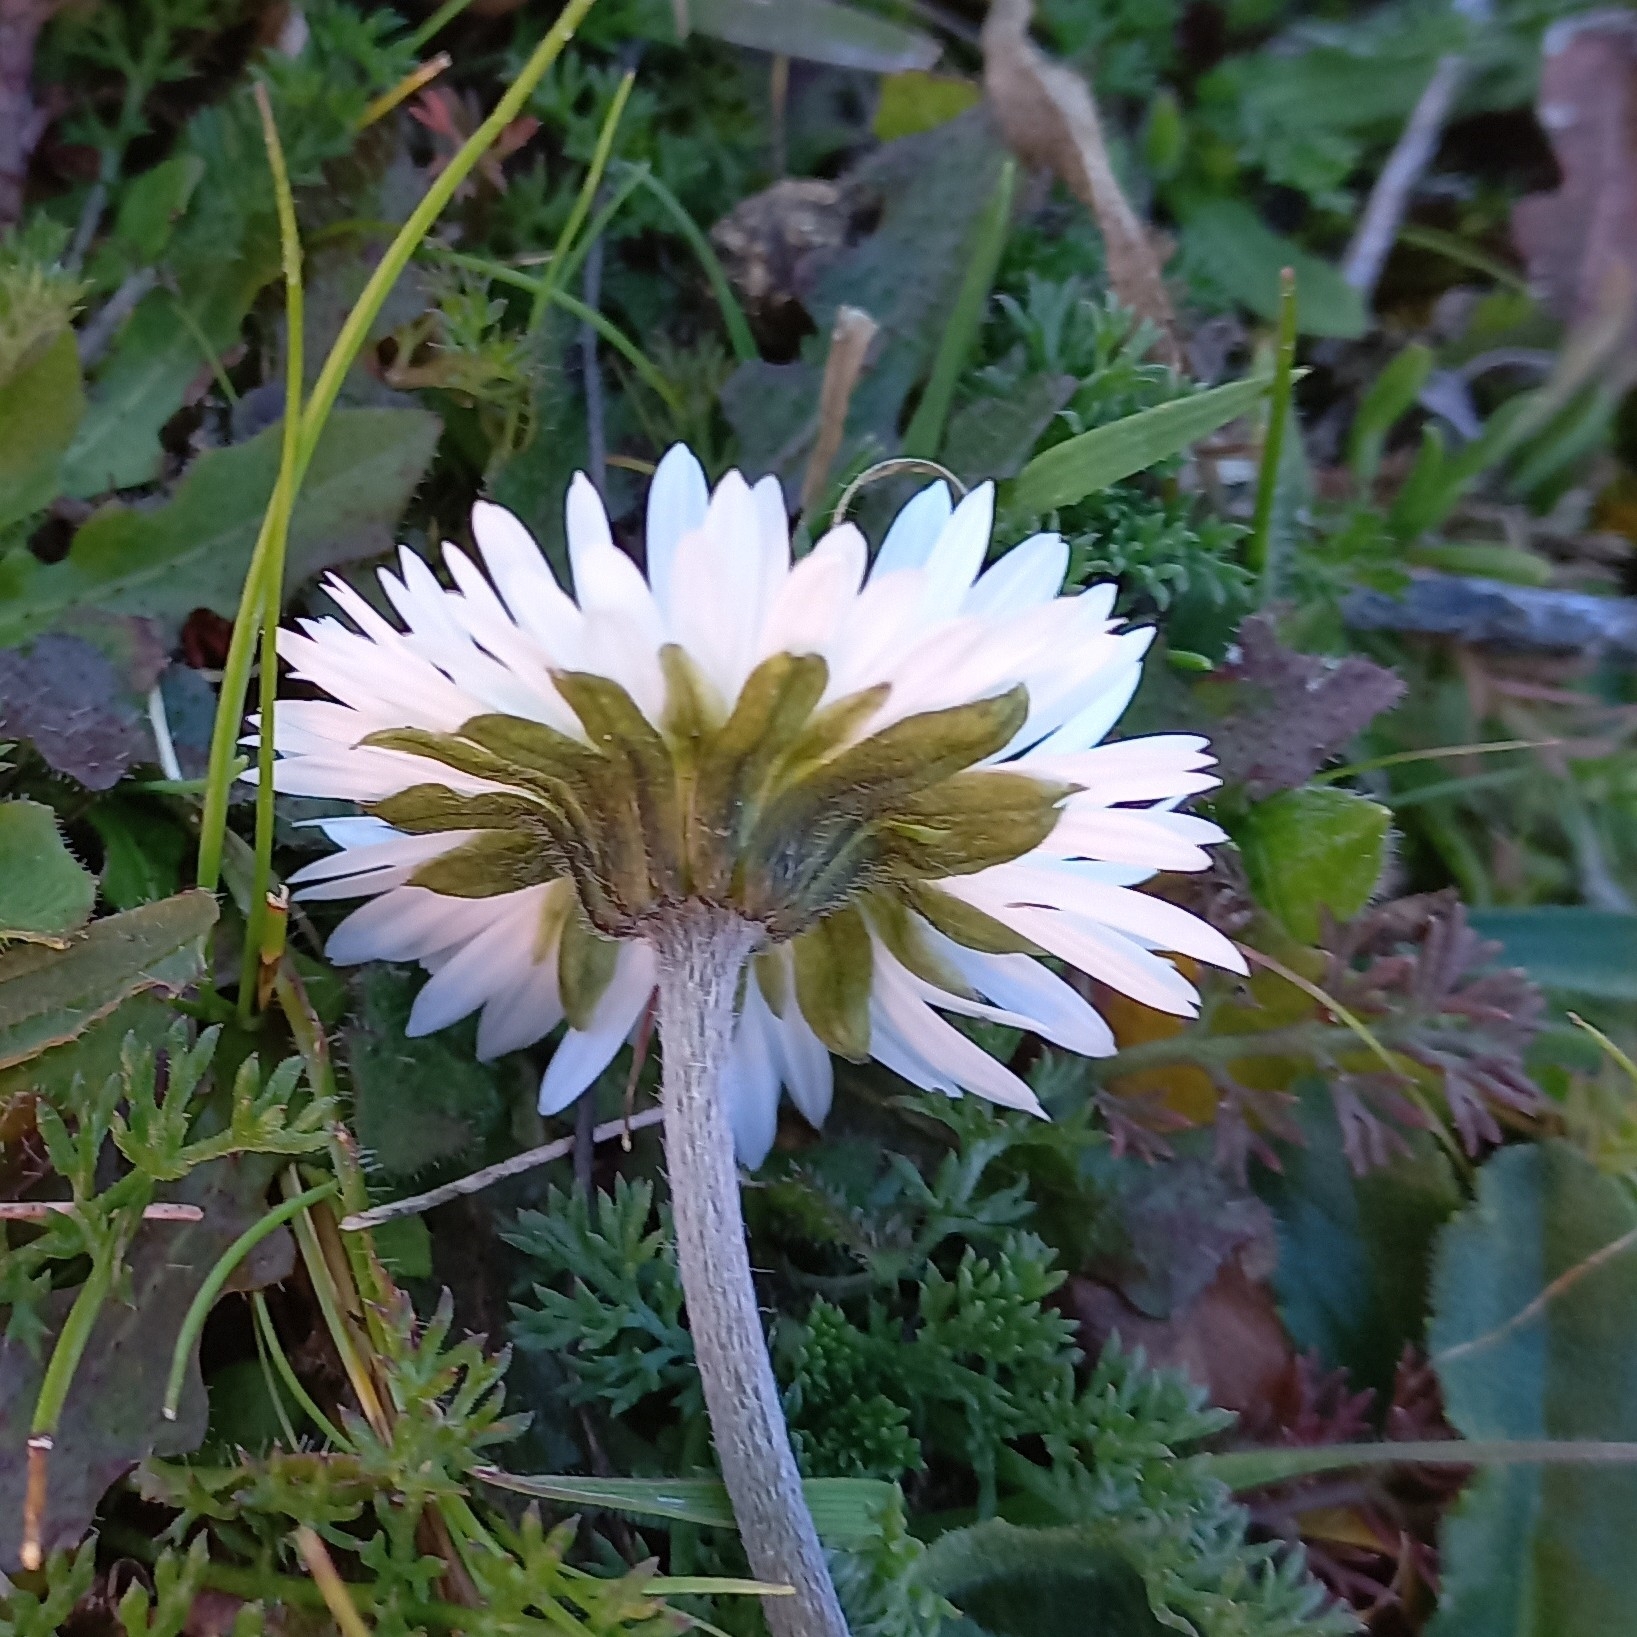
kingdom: Plantae
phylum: Tracheophyta
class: Magnoliopsida
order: Asterales
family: Asteraceae
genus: Bellis
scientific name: Bellis sylvestris
